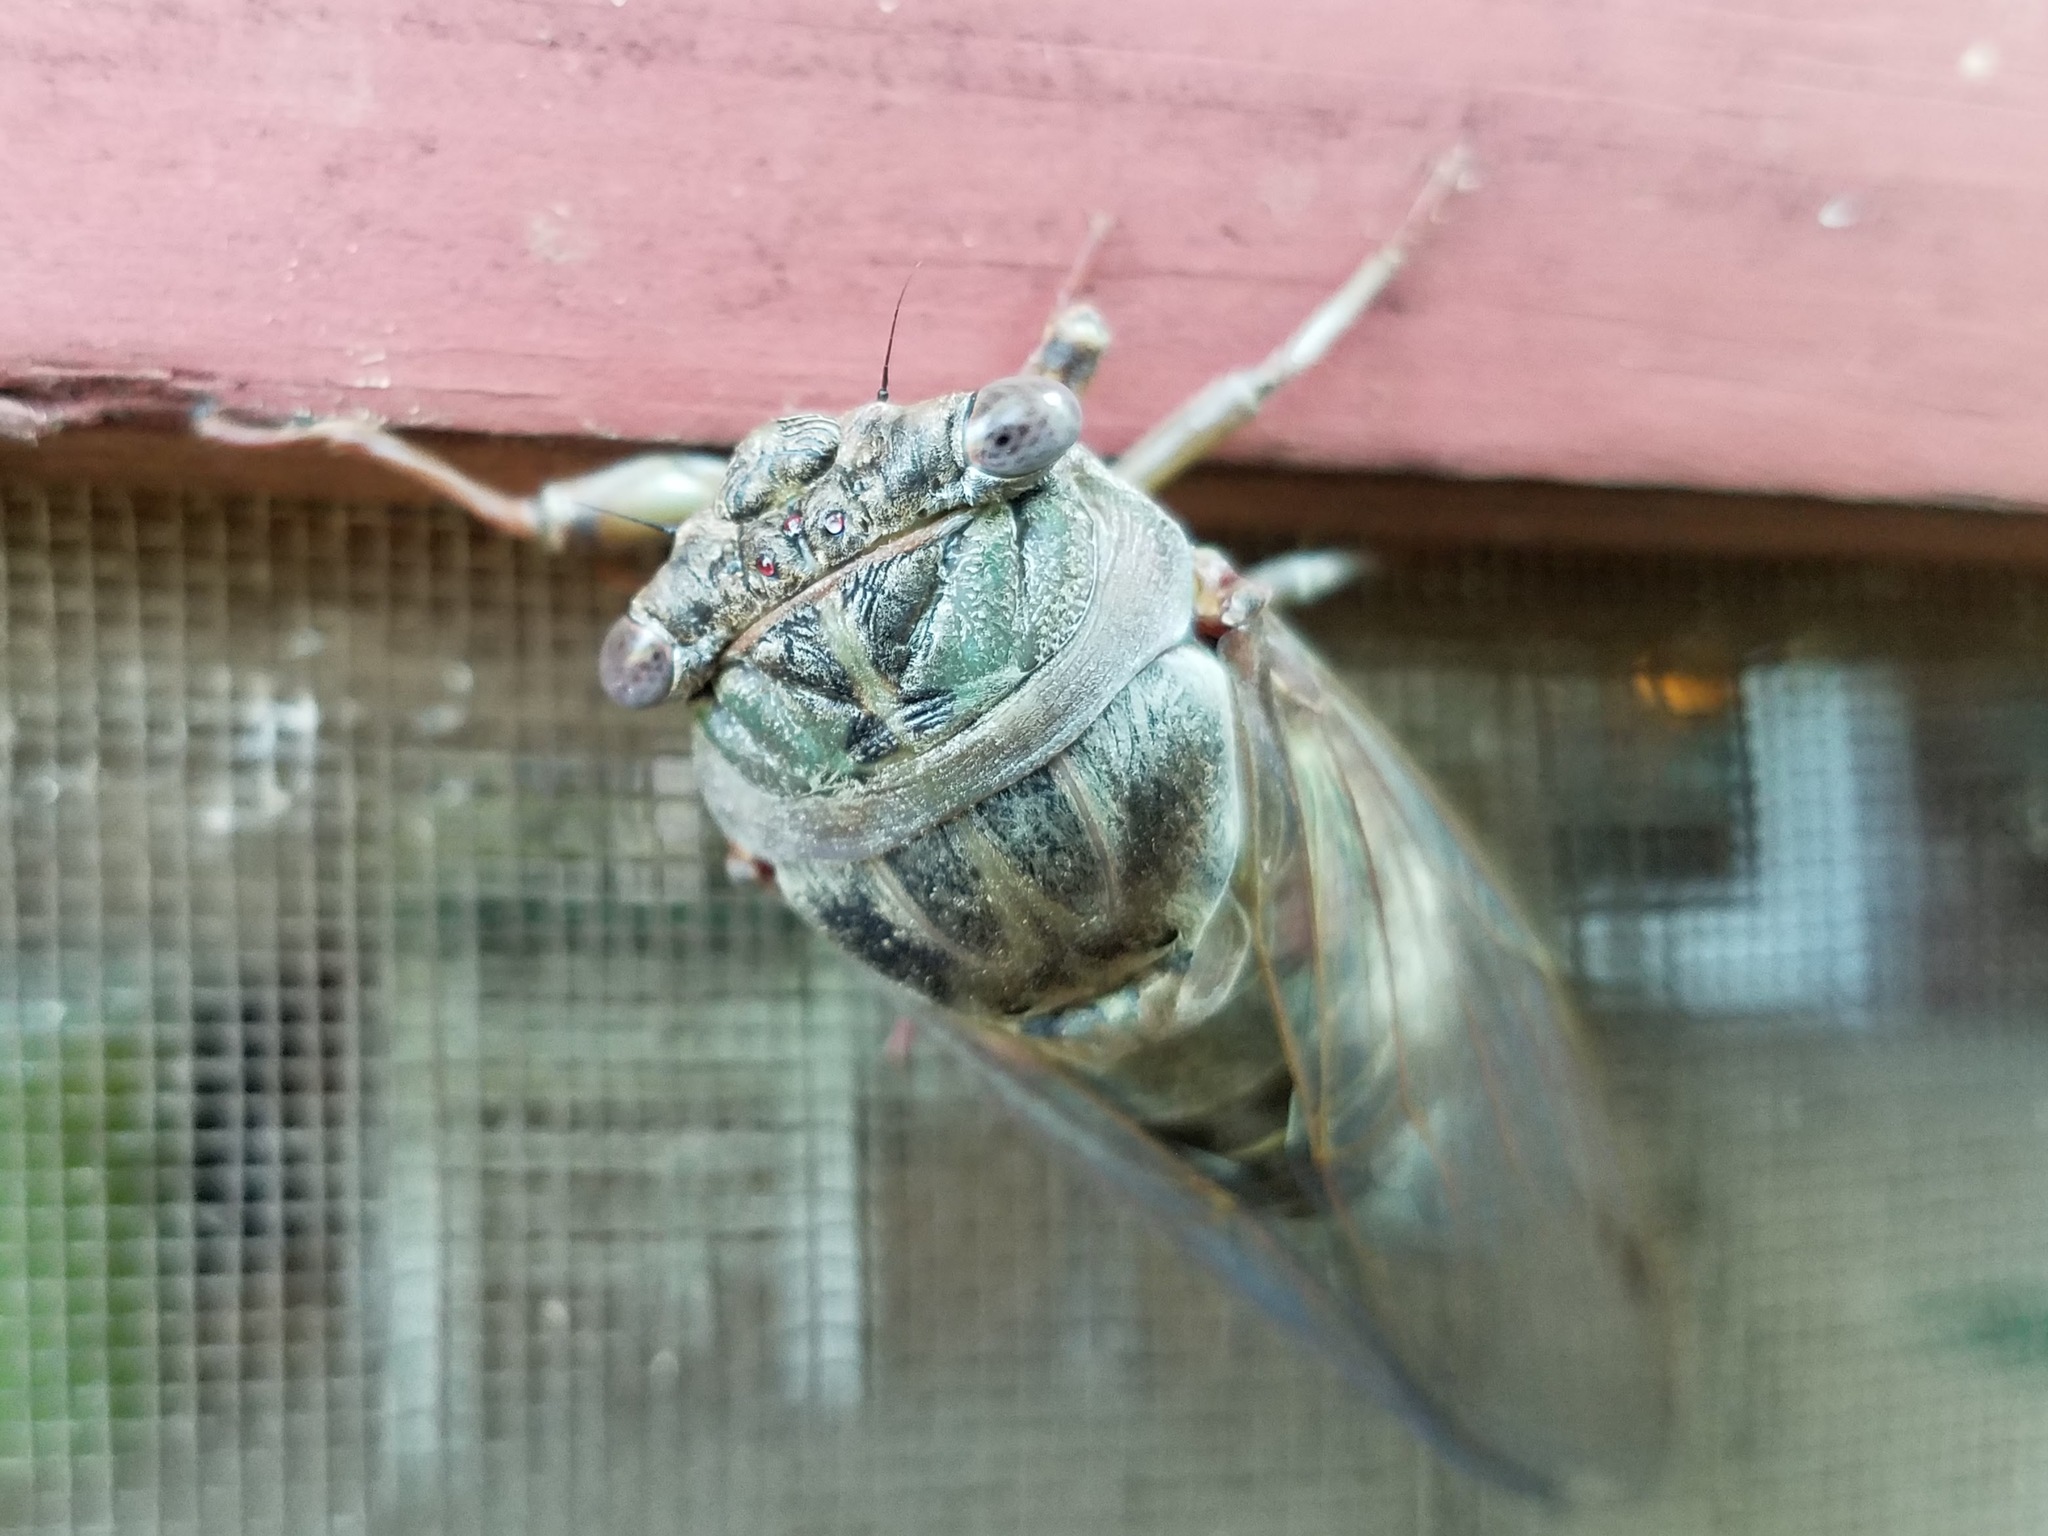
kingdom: Animalia
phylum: Arthropoda
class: Insecta
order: Hemiptera
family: Cicadidae
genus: Diceroprocta
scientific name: Diceroprocta grossa
